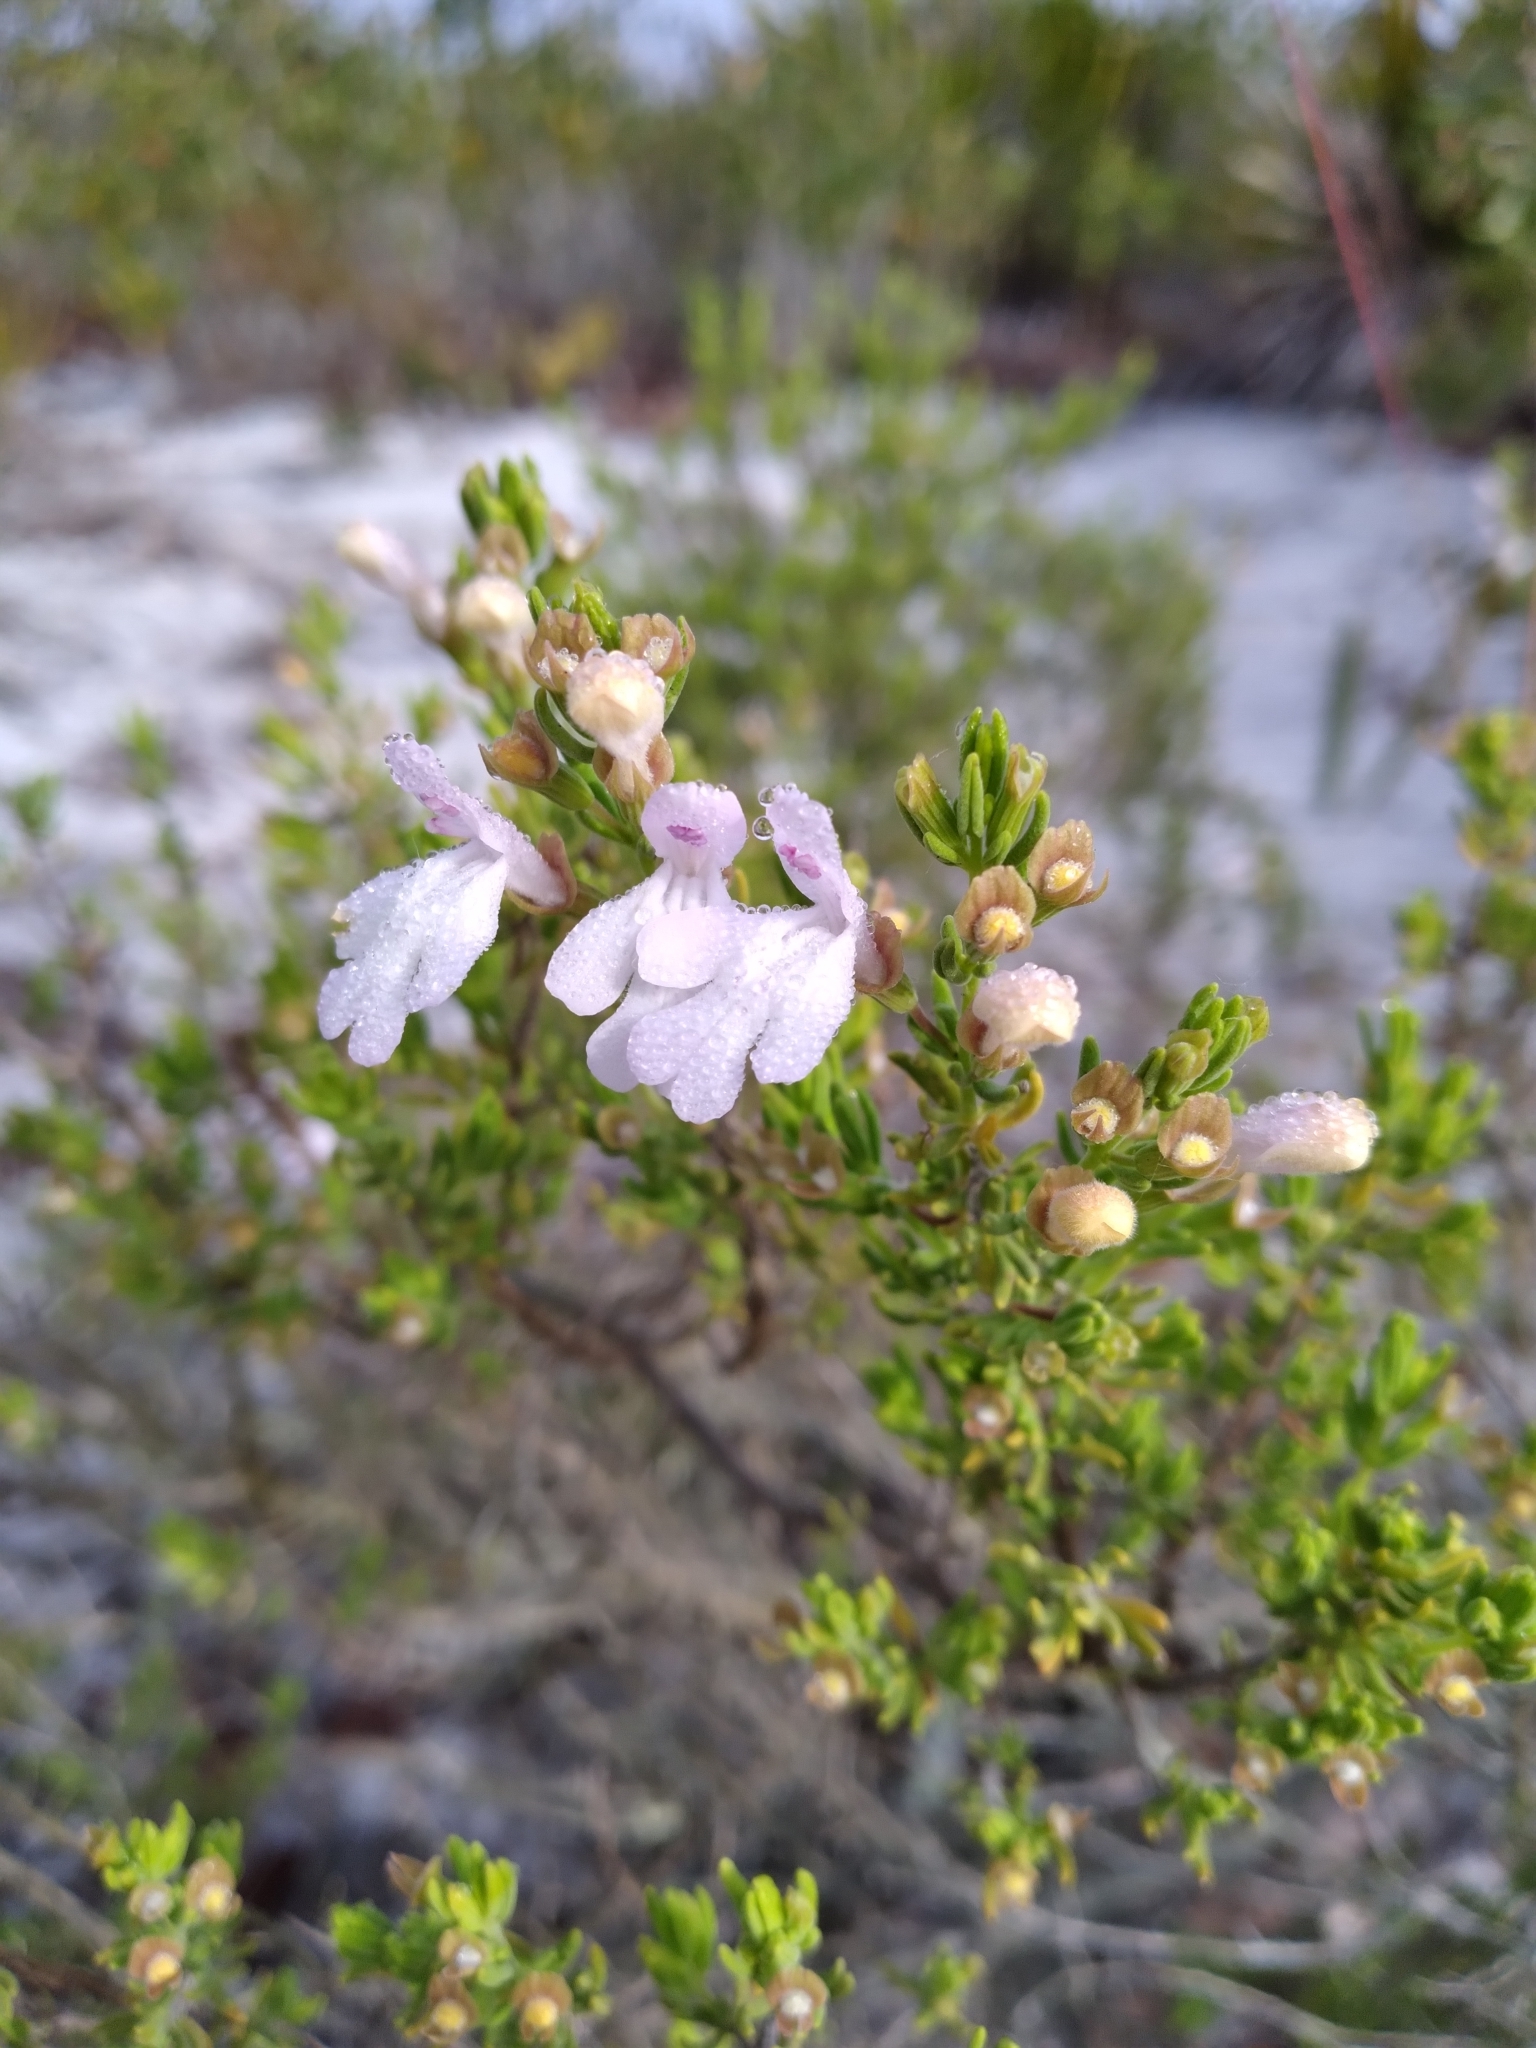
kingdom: Plantae
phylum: Tracheophyta
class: Magnoliopsida
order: Lamiales
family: Lamiaceae
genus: Clinopodium
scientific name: Clinopodium ashei
